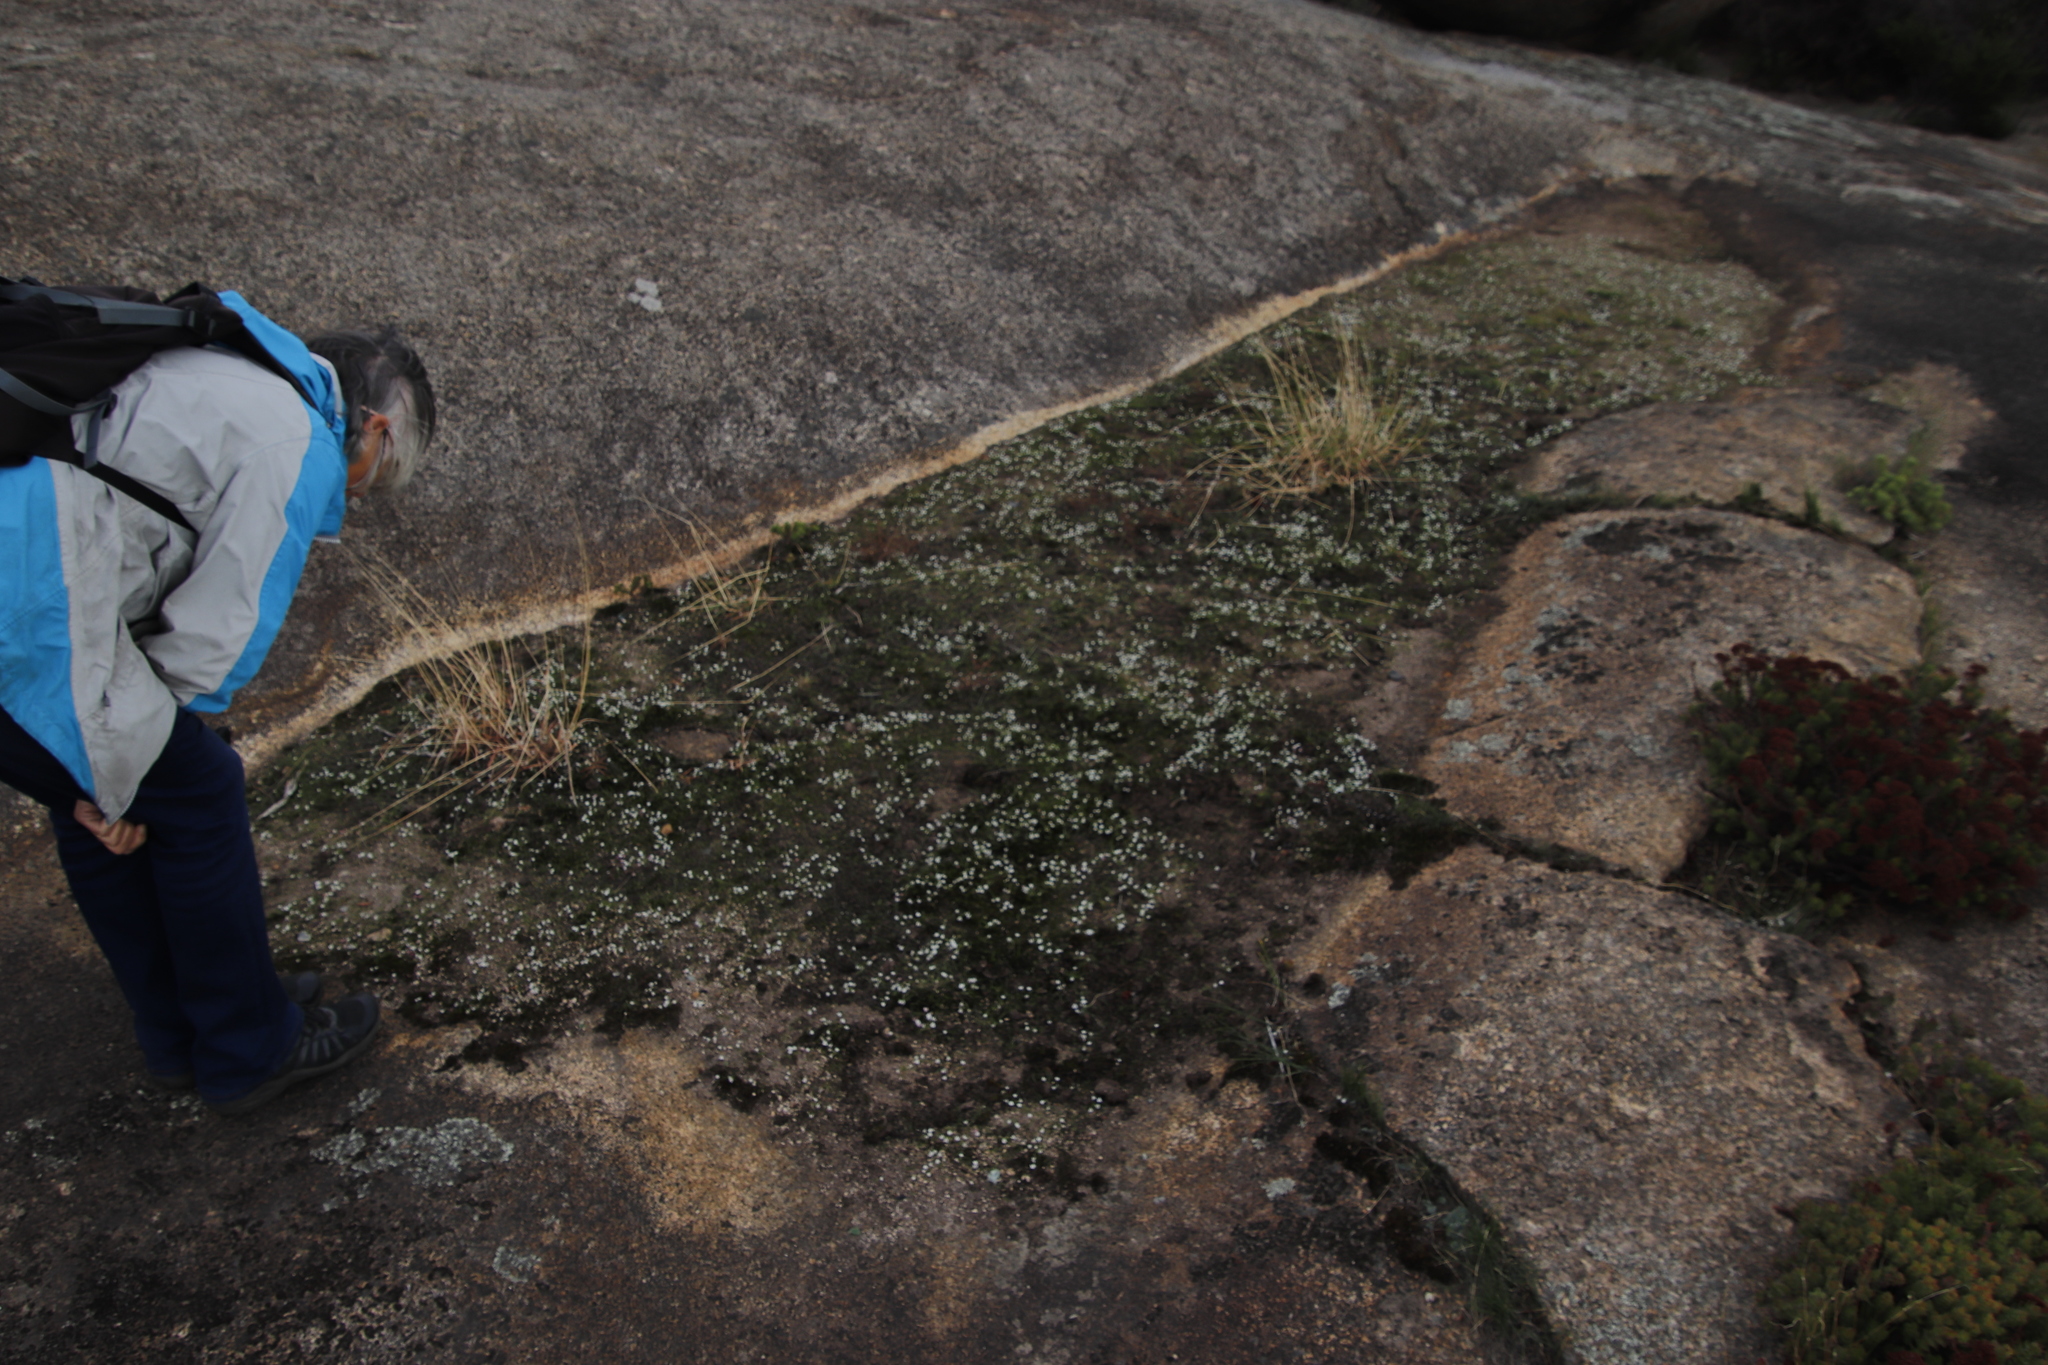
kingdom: Plantae
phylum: Tracheophyta
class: Liliopsida
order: Asparagales
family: Hypoxidaceae
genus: Pauridia
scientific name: Pauridia minuta
